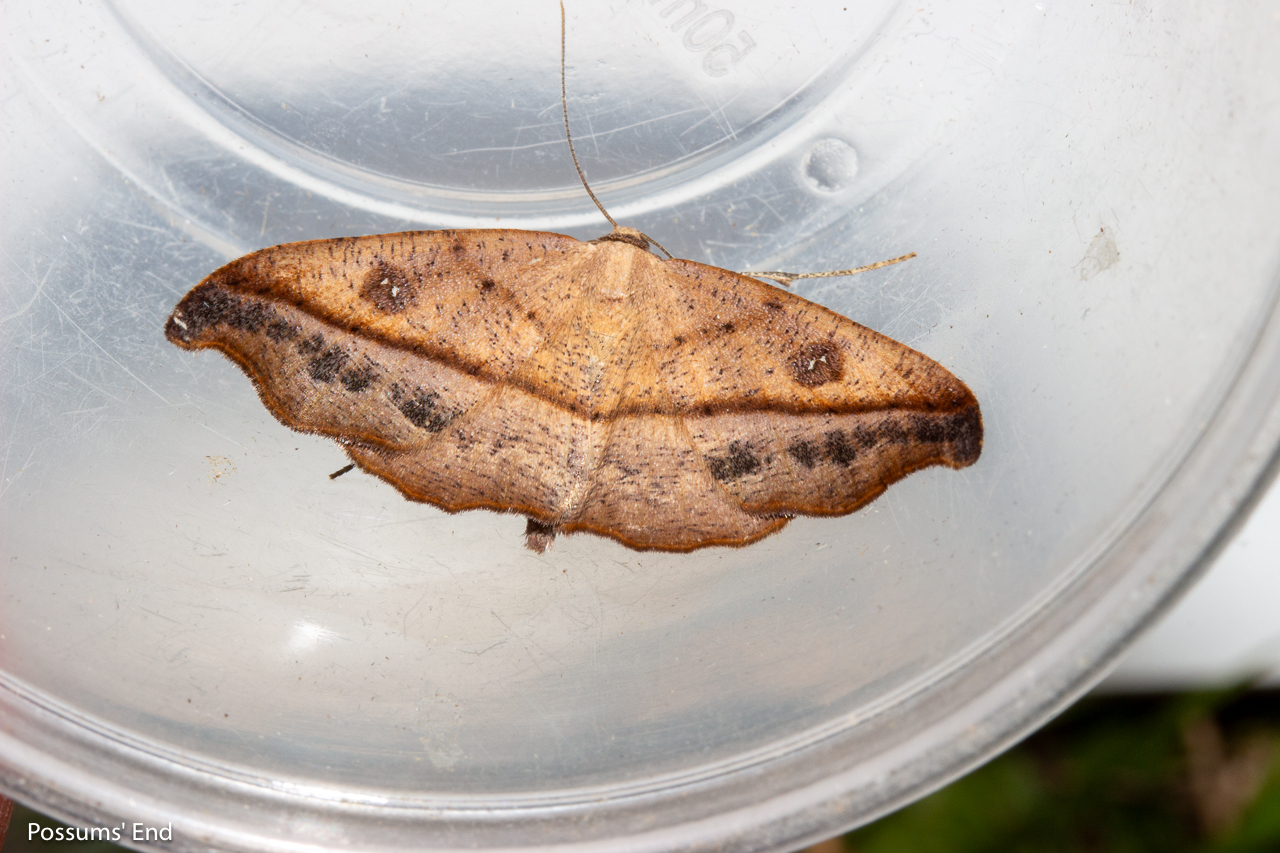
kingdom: Animalia
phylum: Arthropoda
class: Insecta
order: Lepidoptera
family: Geometridae
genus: Sarisa
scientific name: Sarisa muriferata
